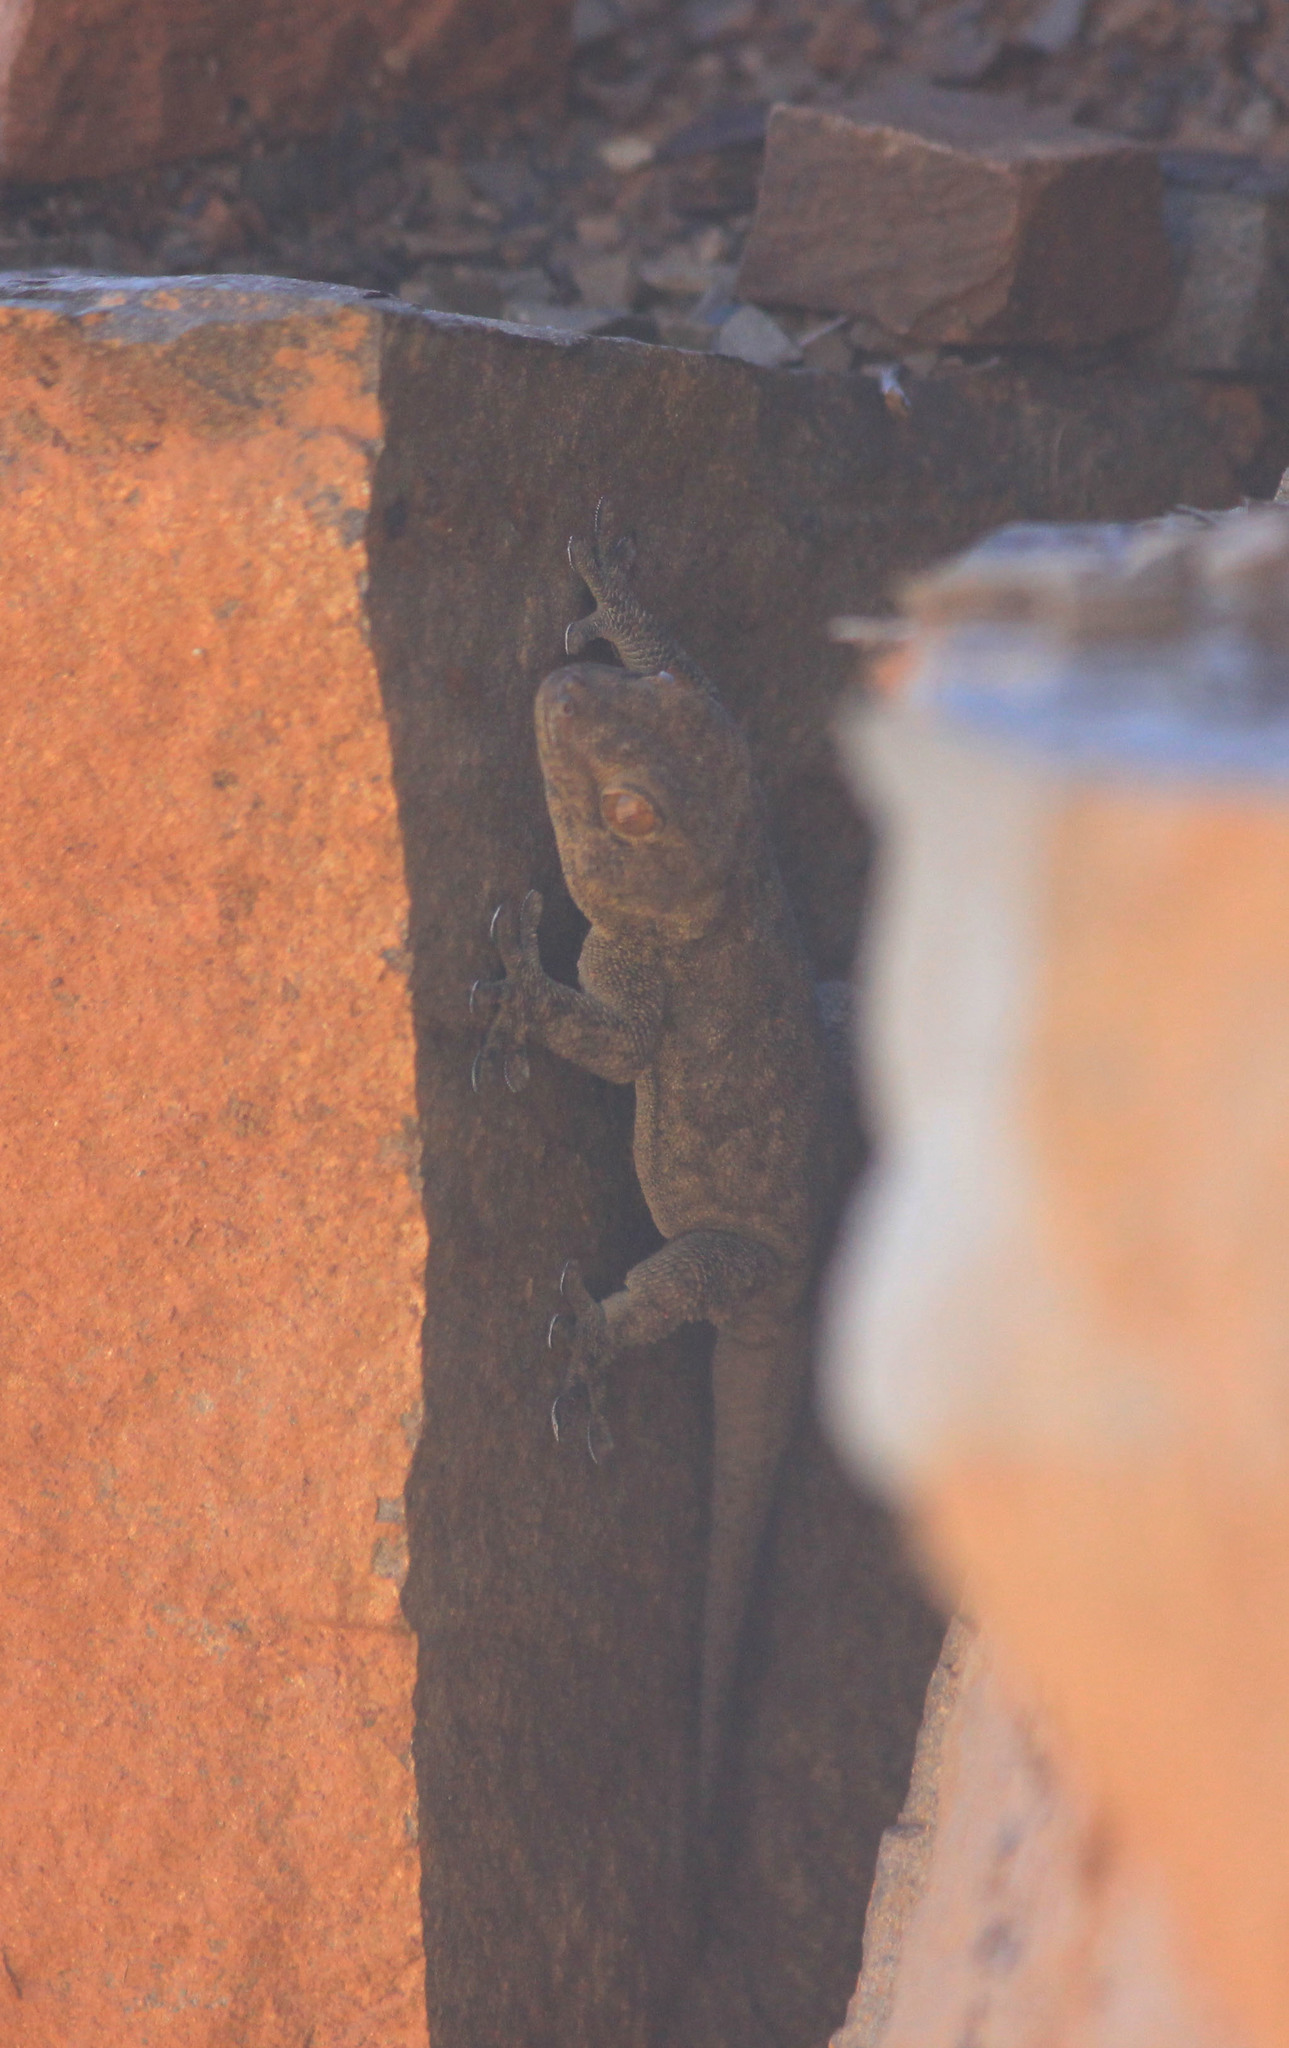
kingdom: Animalia
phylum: Chordata
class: Squamata
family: Gekkonidae
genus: Pachydactylus
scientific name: Pachydactylus kladaroderma
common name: Thin-skinned gecko
